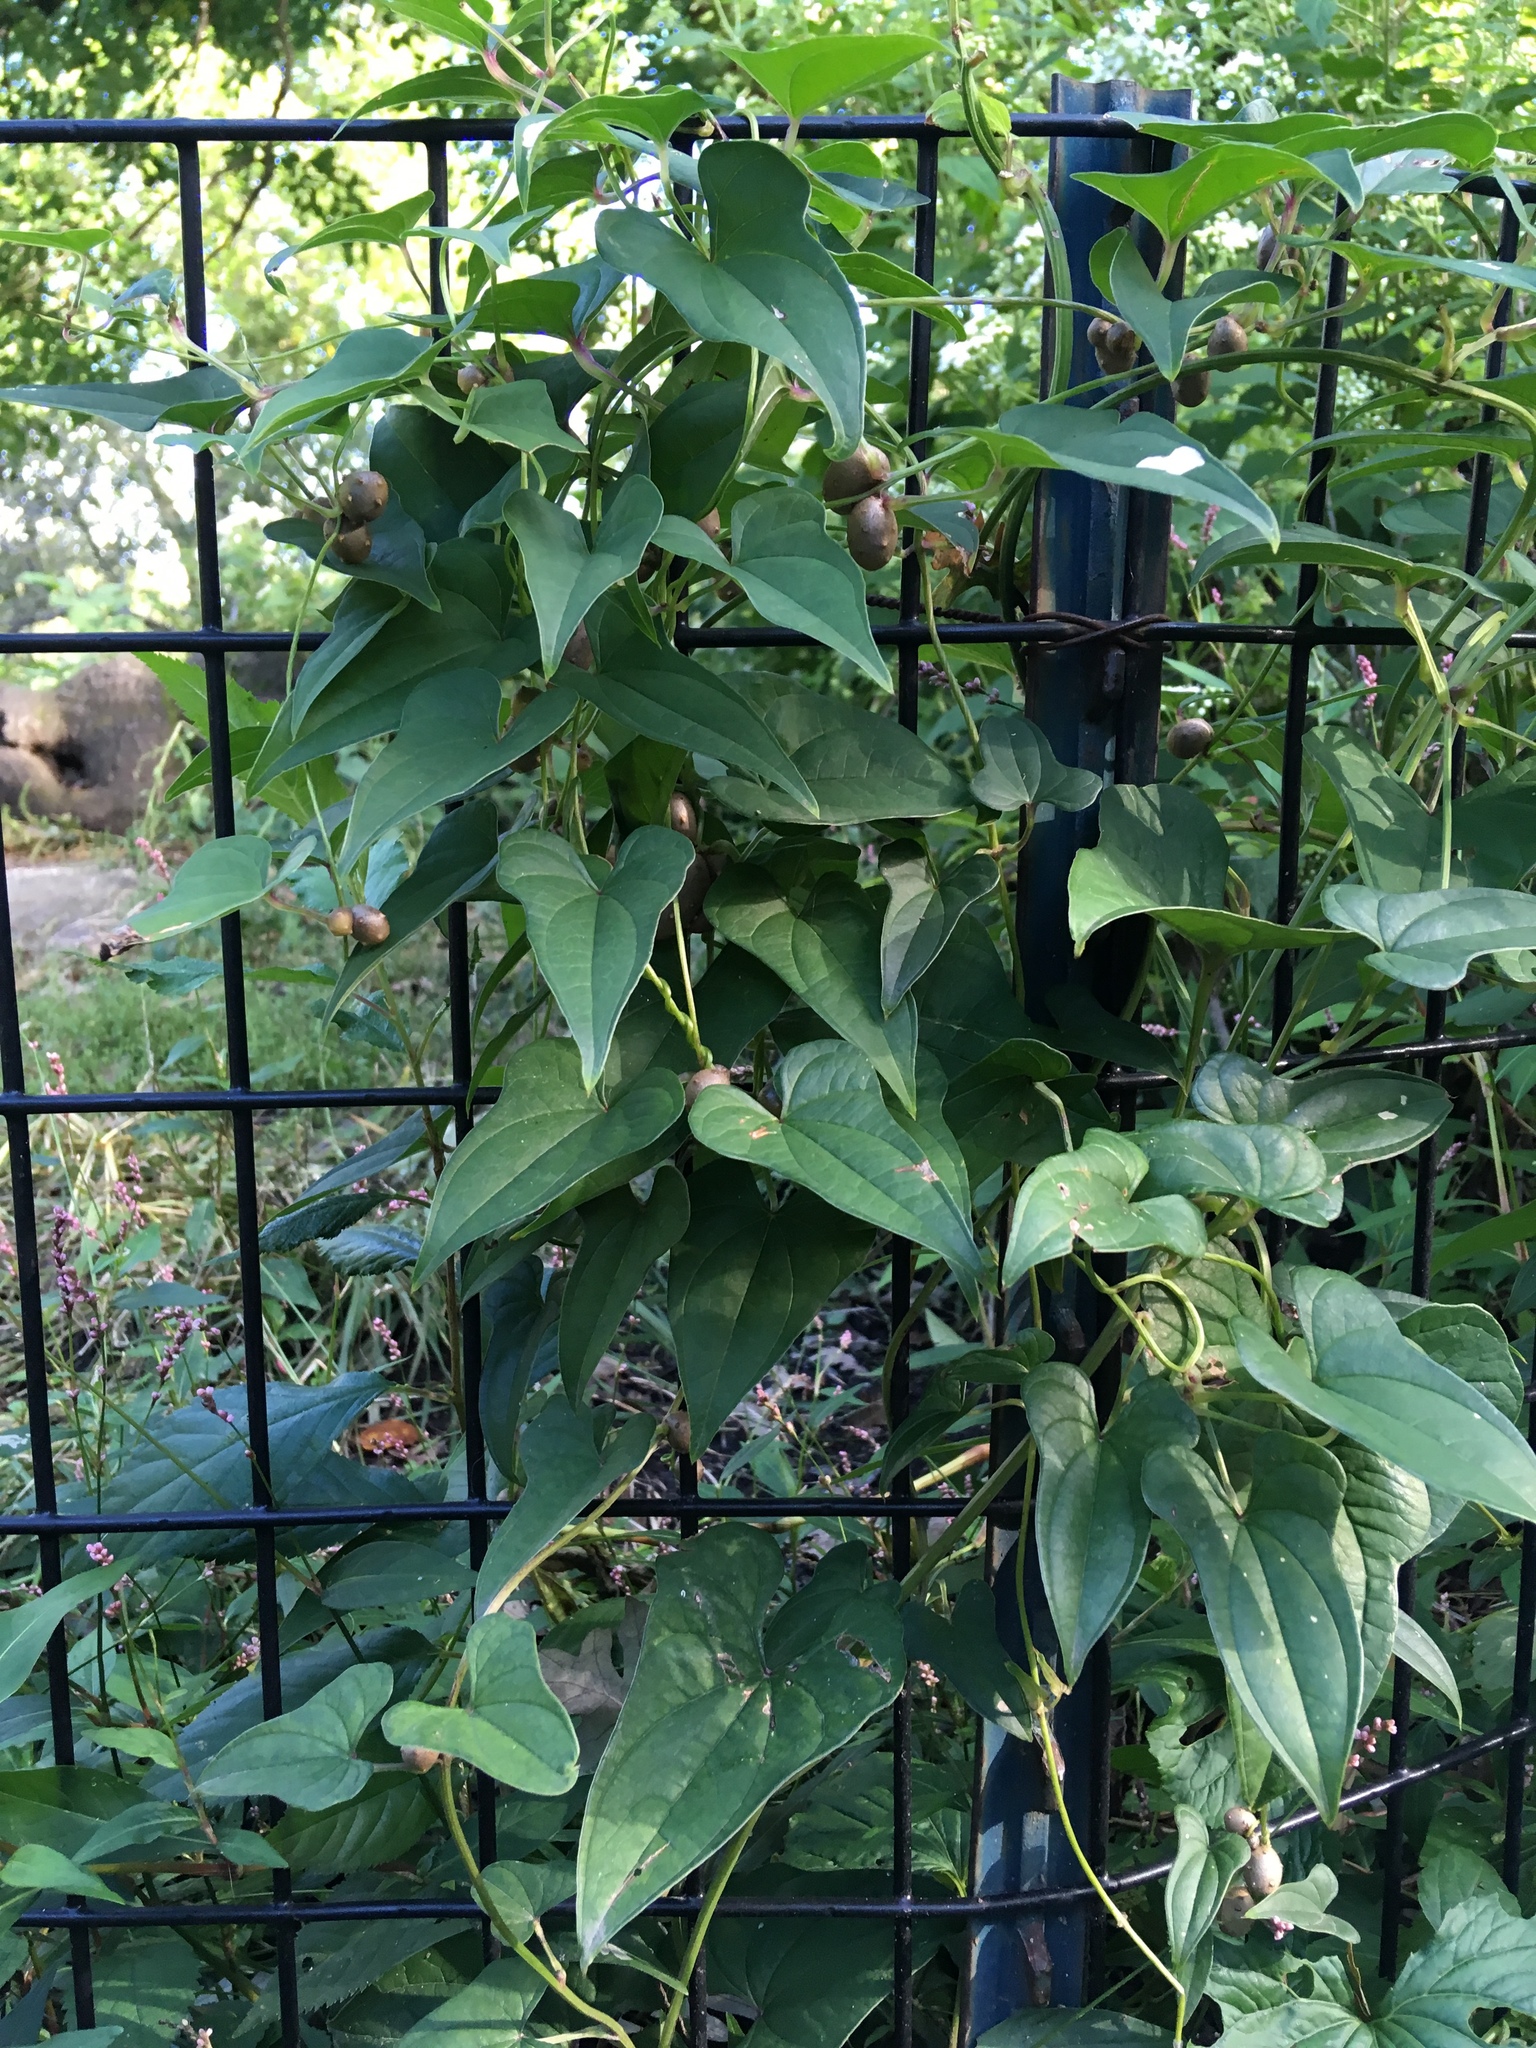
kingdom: Plantae
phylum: Tracheophyta
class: Liliopsida
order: Dioscoreales
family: Dioscoreaceae
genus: Dioscorea
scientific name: Dioscorea polystachya
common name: Chinese yam
